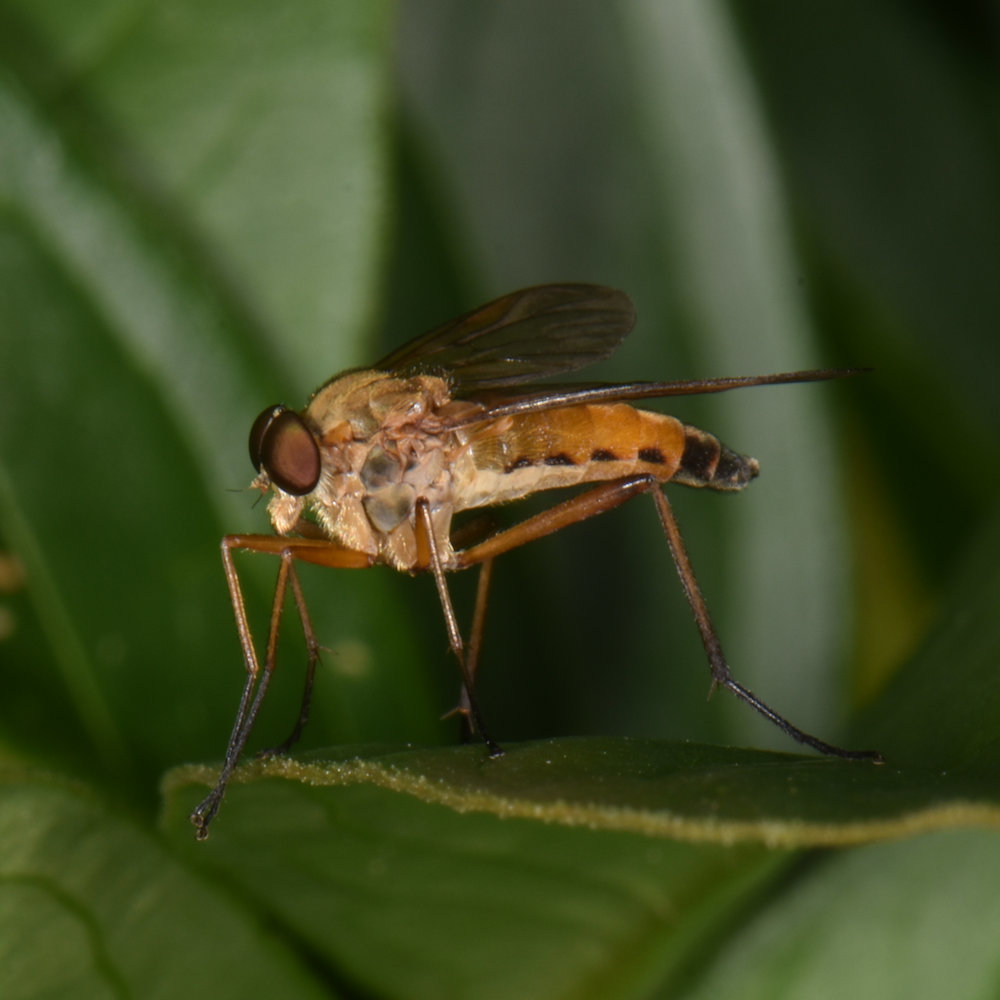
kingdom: Animalia
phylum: Arthropoda
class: Insecta
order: Diptera
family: Rhagionidae
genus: Rhagio
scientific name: Rhagio tringaria
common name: Marsh snipefly
